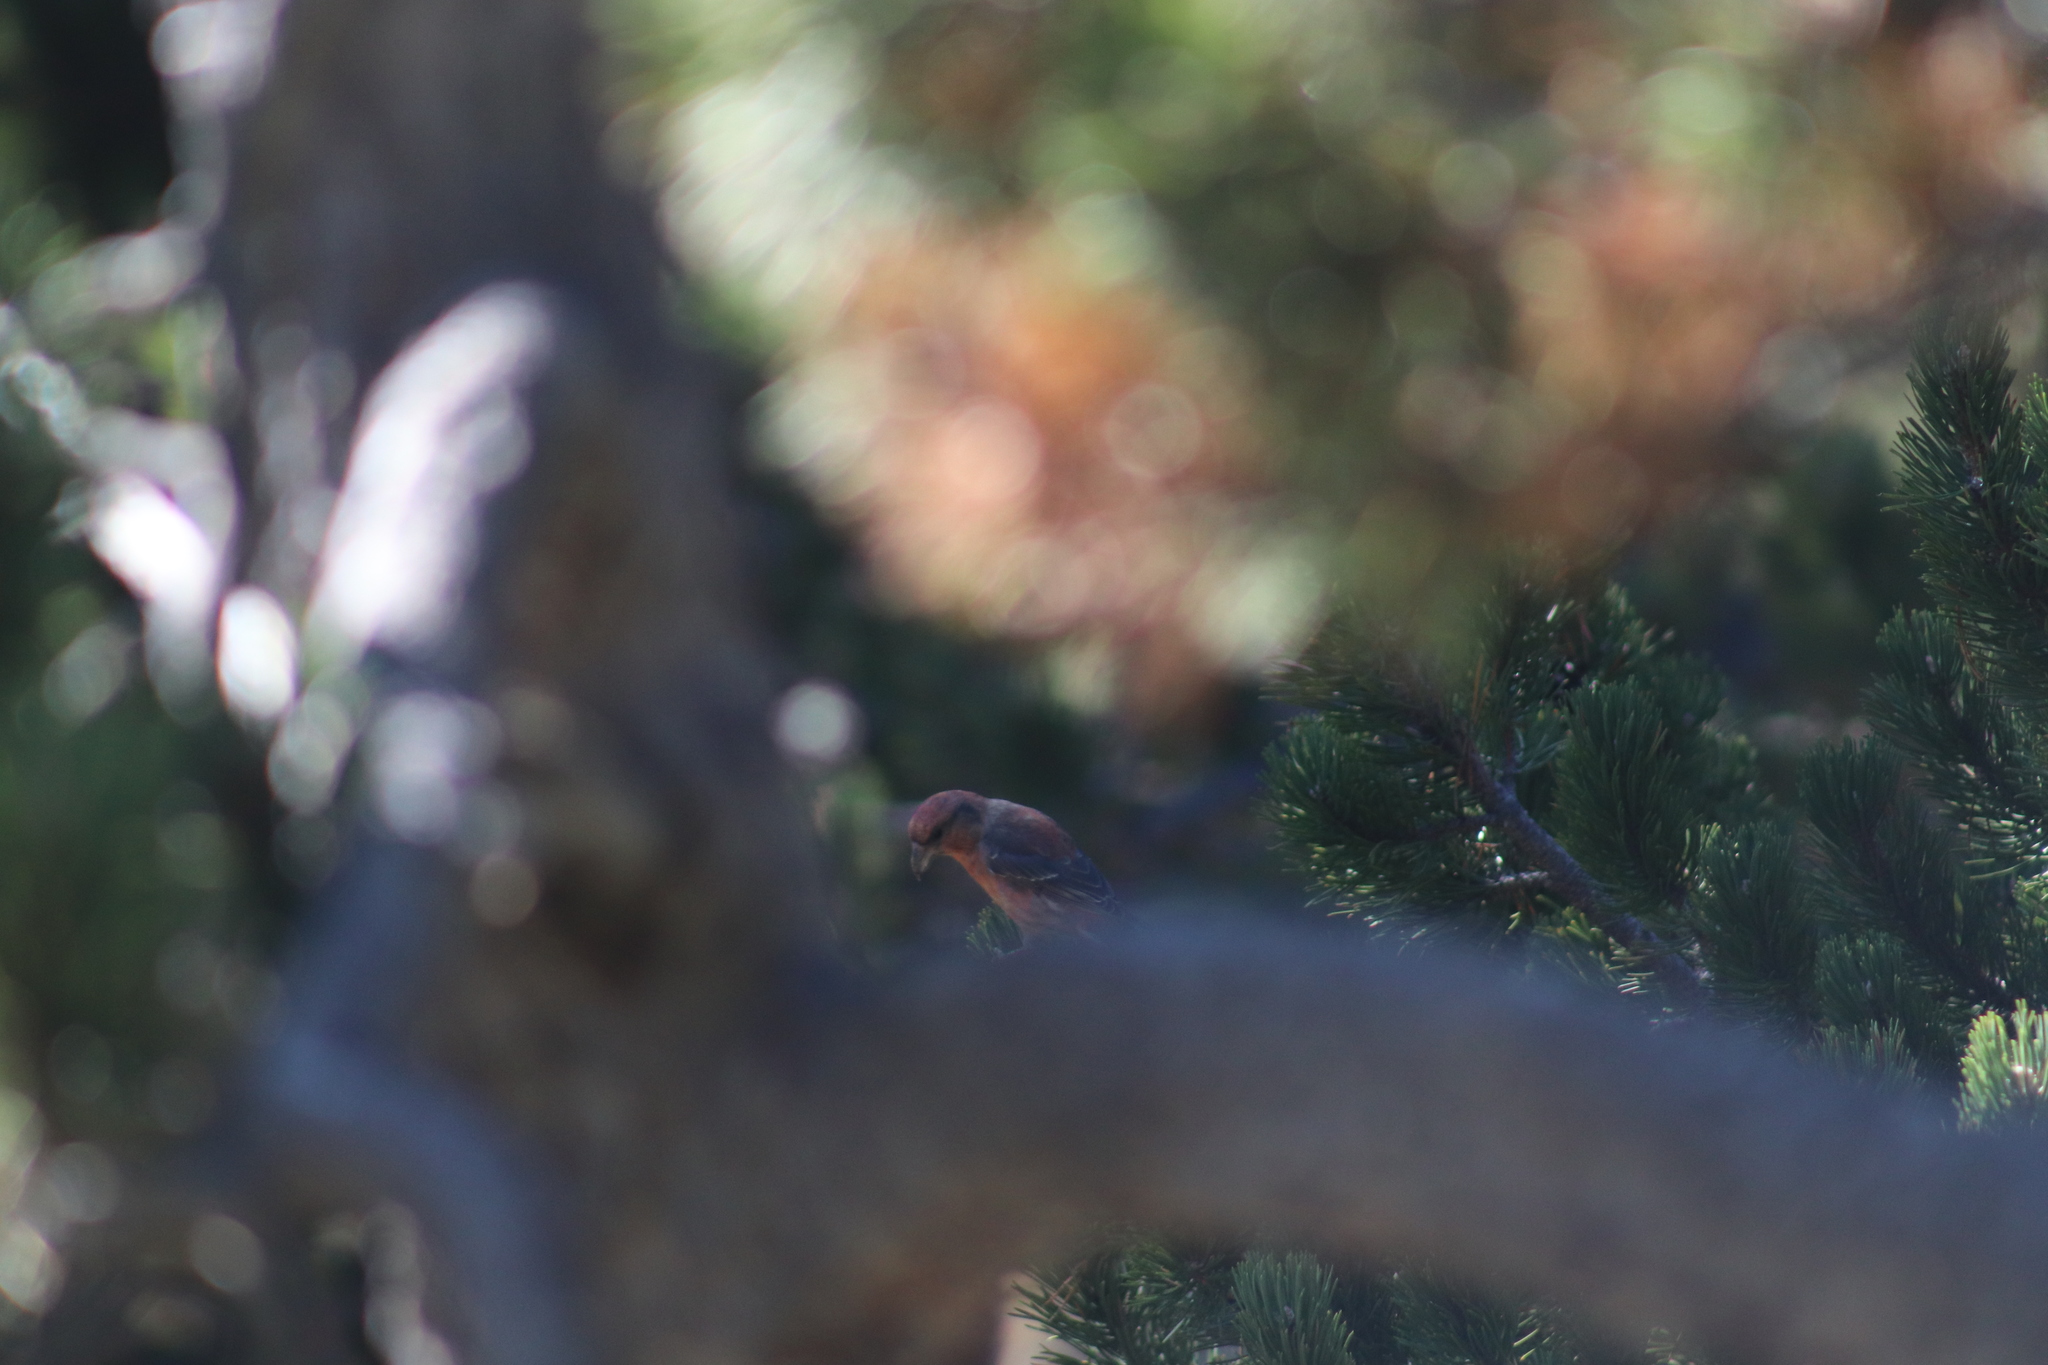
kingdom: Animalia
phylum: Chordata
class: Aves
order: Passeriformes
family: Fringillidae
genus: Loxia
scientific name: Loxia curvirostra
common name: Red crossbill
